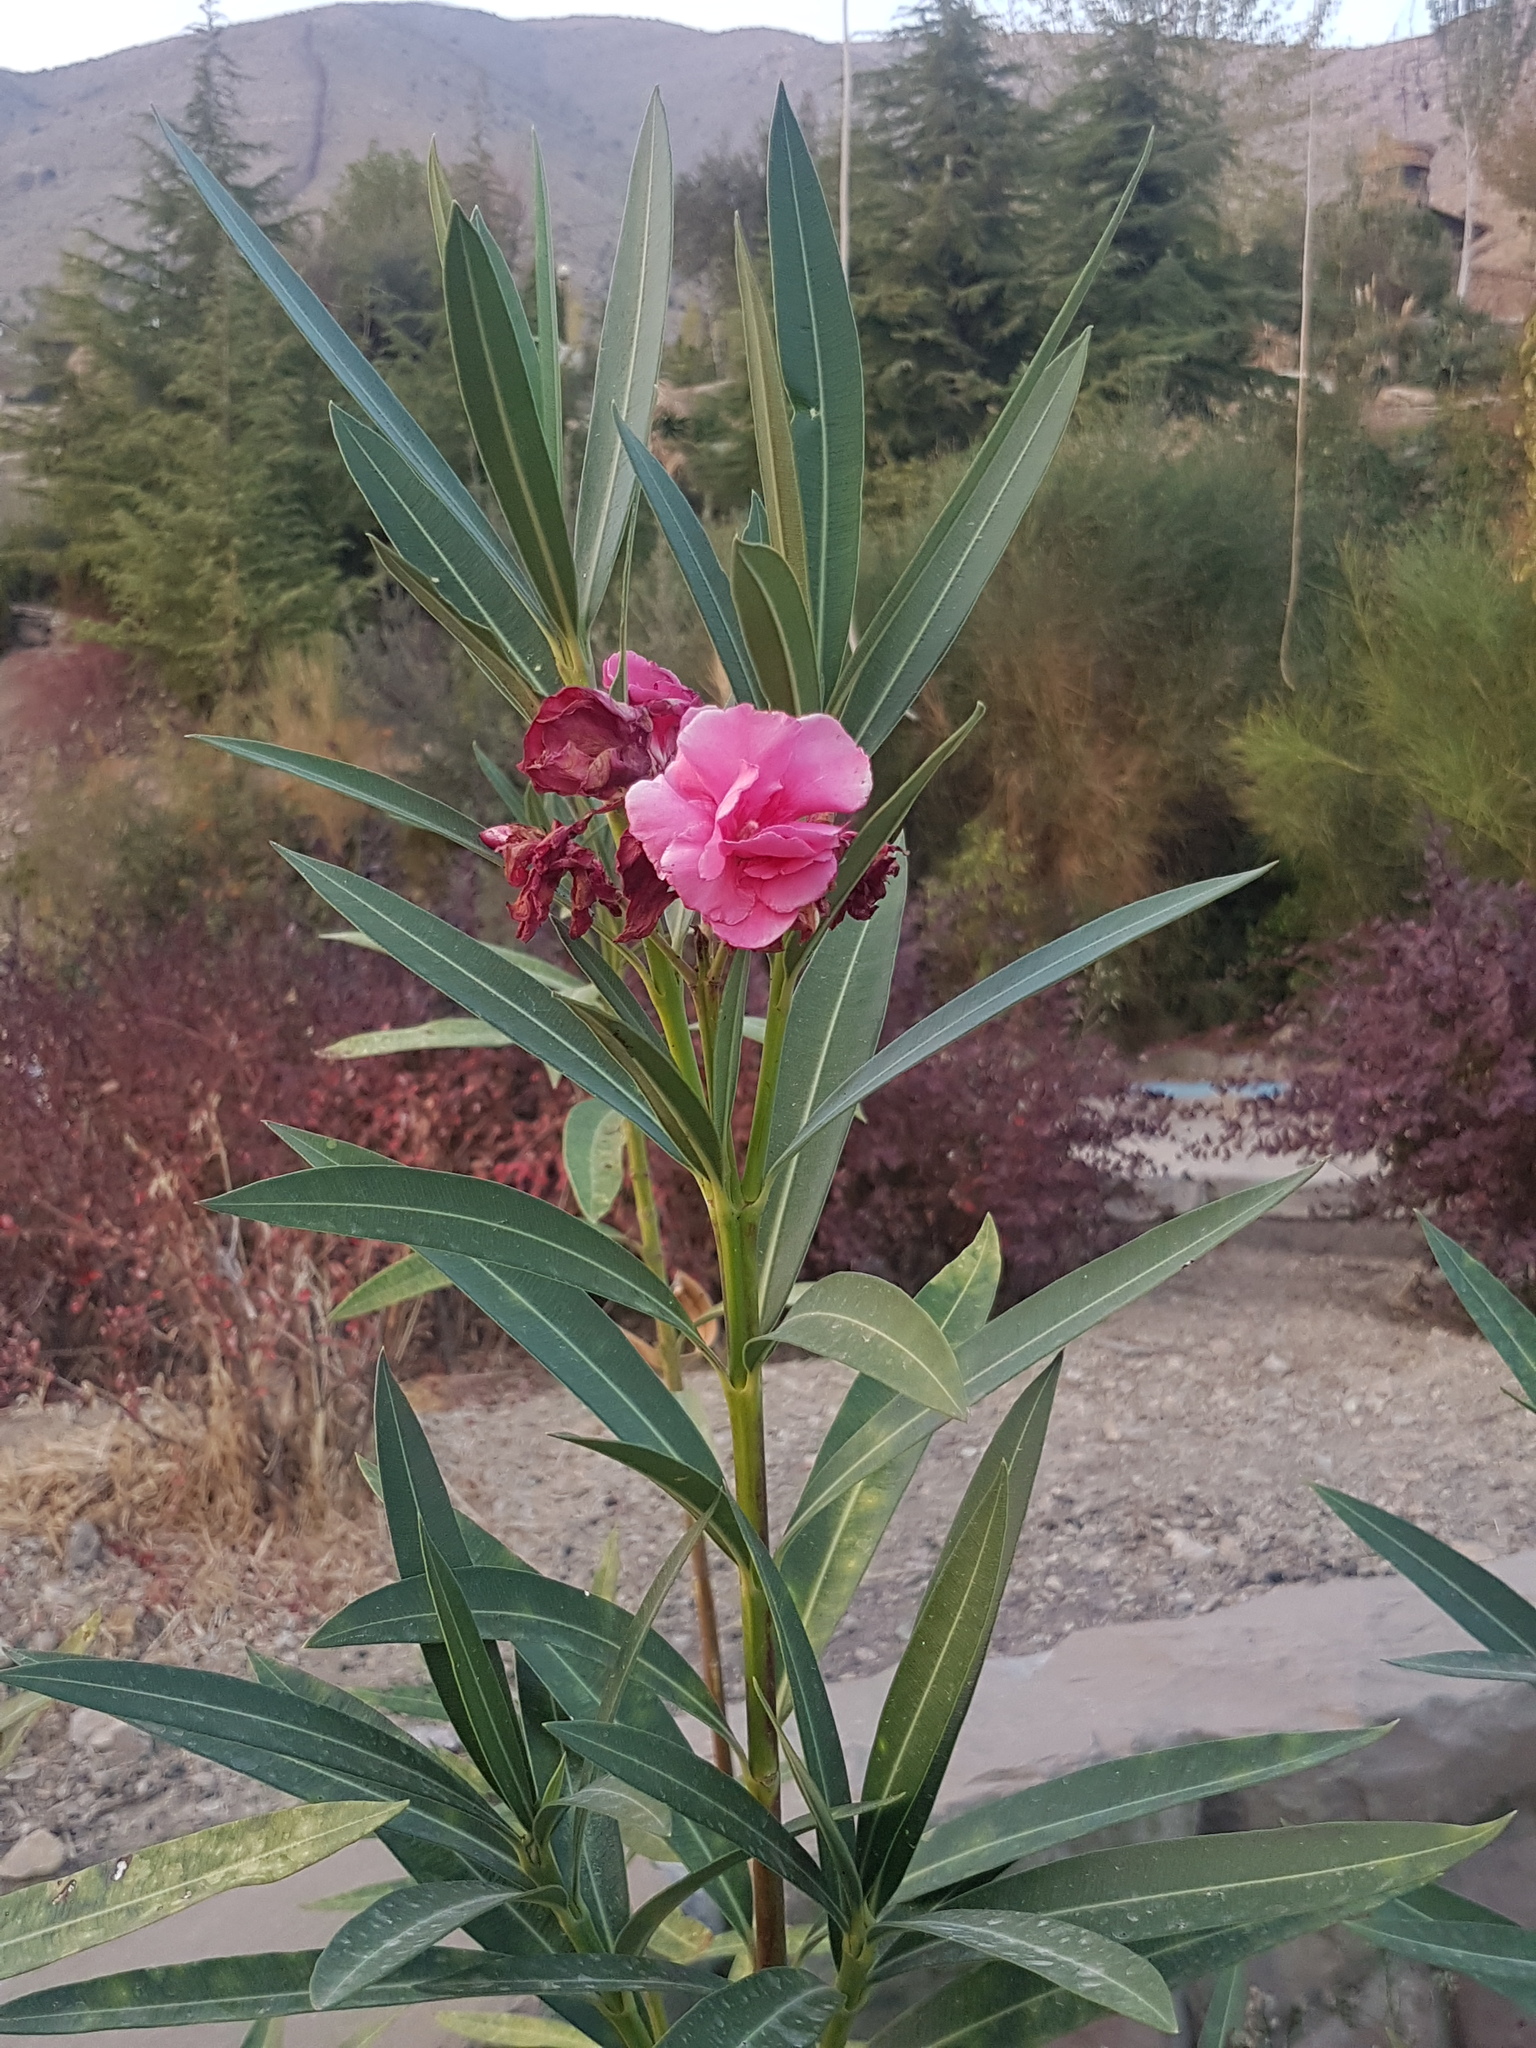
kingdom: Plantae
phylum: Tracheophyta
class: Magnoliopsida
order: Gentianales
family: Apocynaceae
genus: Nerium
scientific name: Nerium oleander
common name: Oleander
